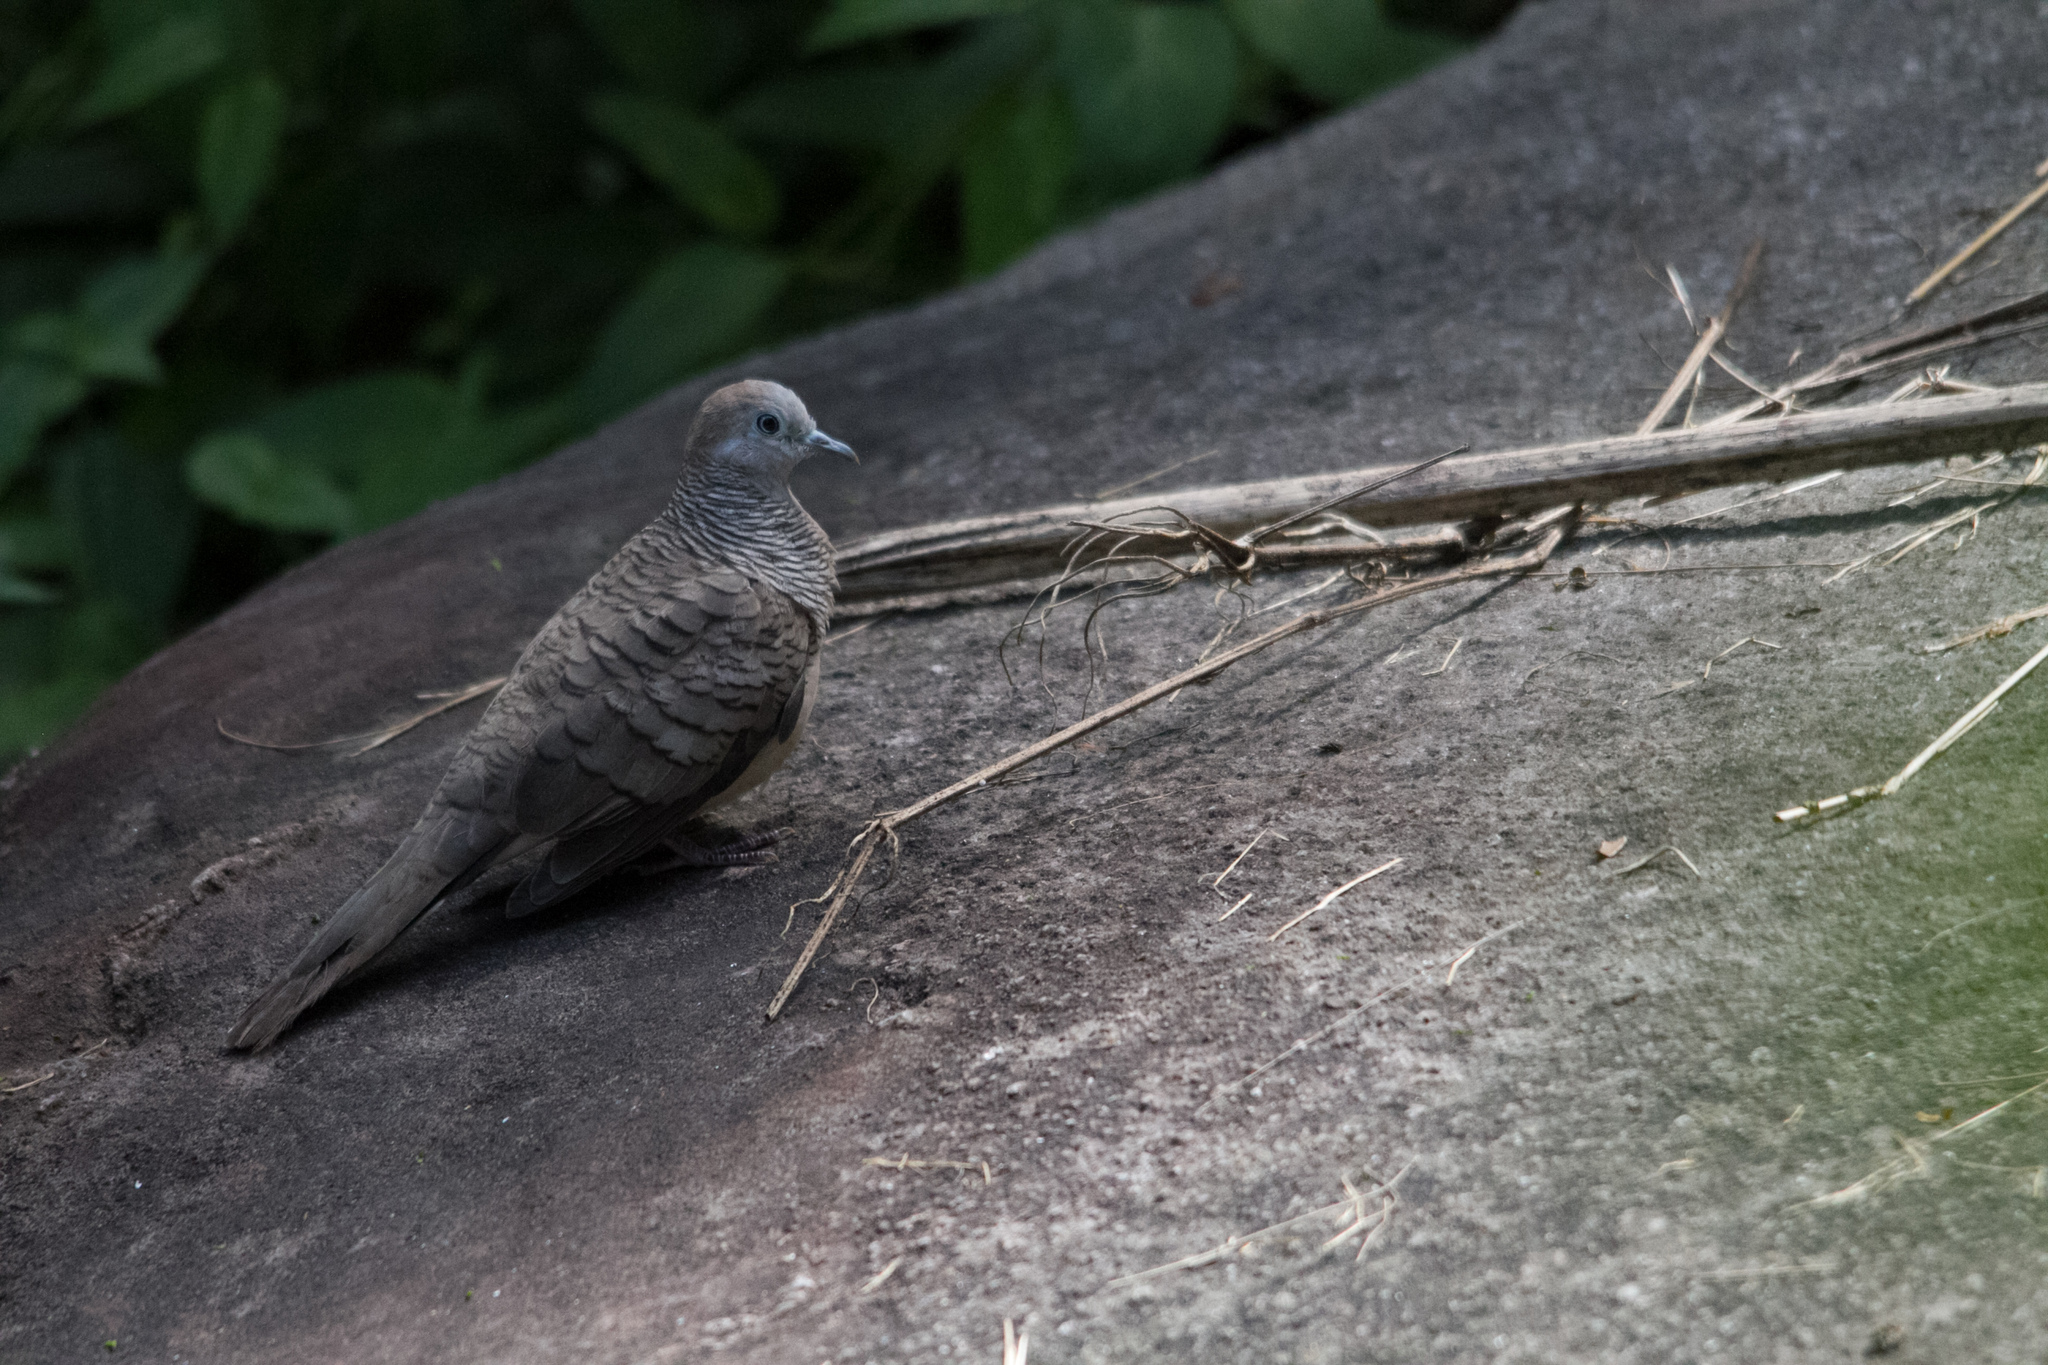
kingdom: Animalia
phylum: Chordata
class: Aves
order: Columbiformes
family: Columbidae
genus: Geopelia
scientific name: Geopelia striata
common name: Zebra dove
